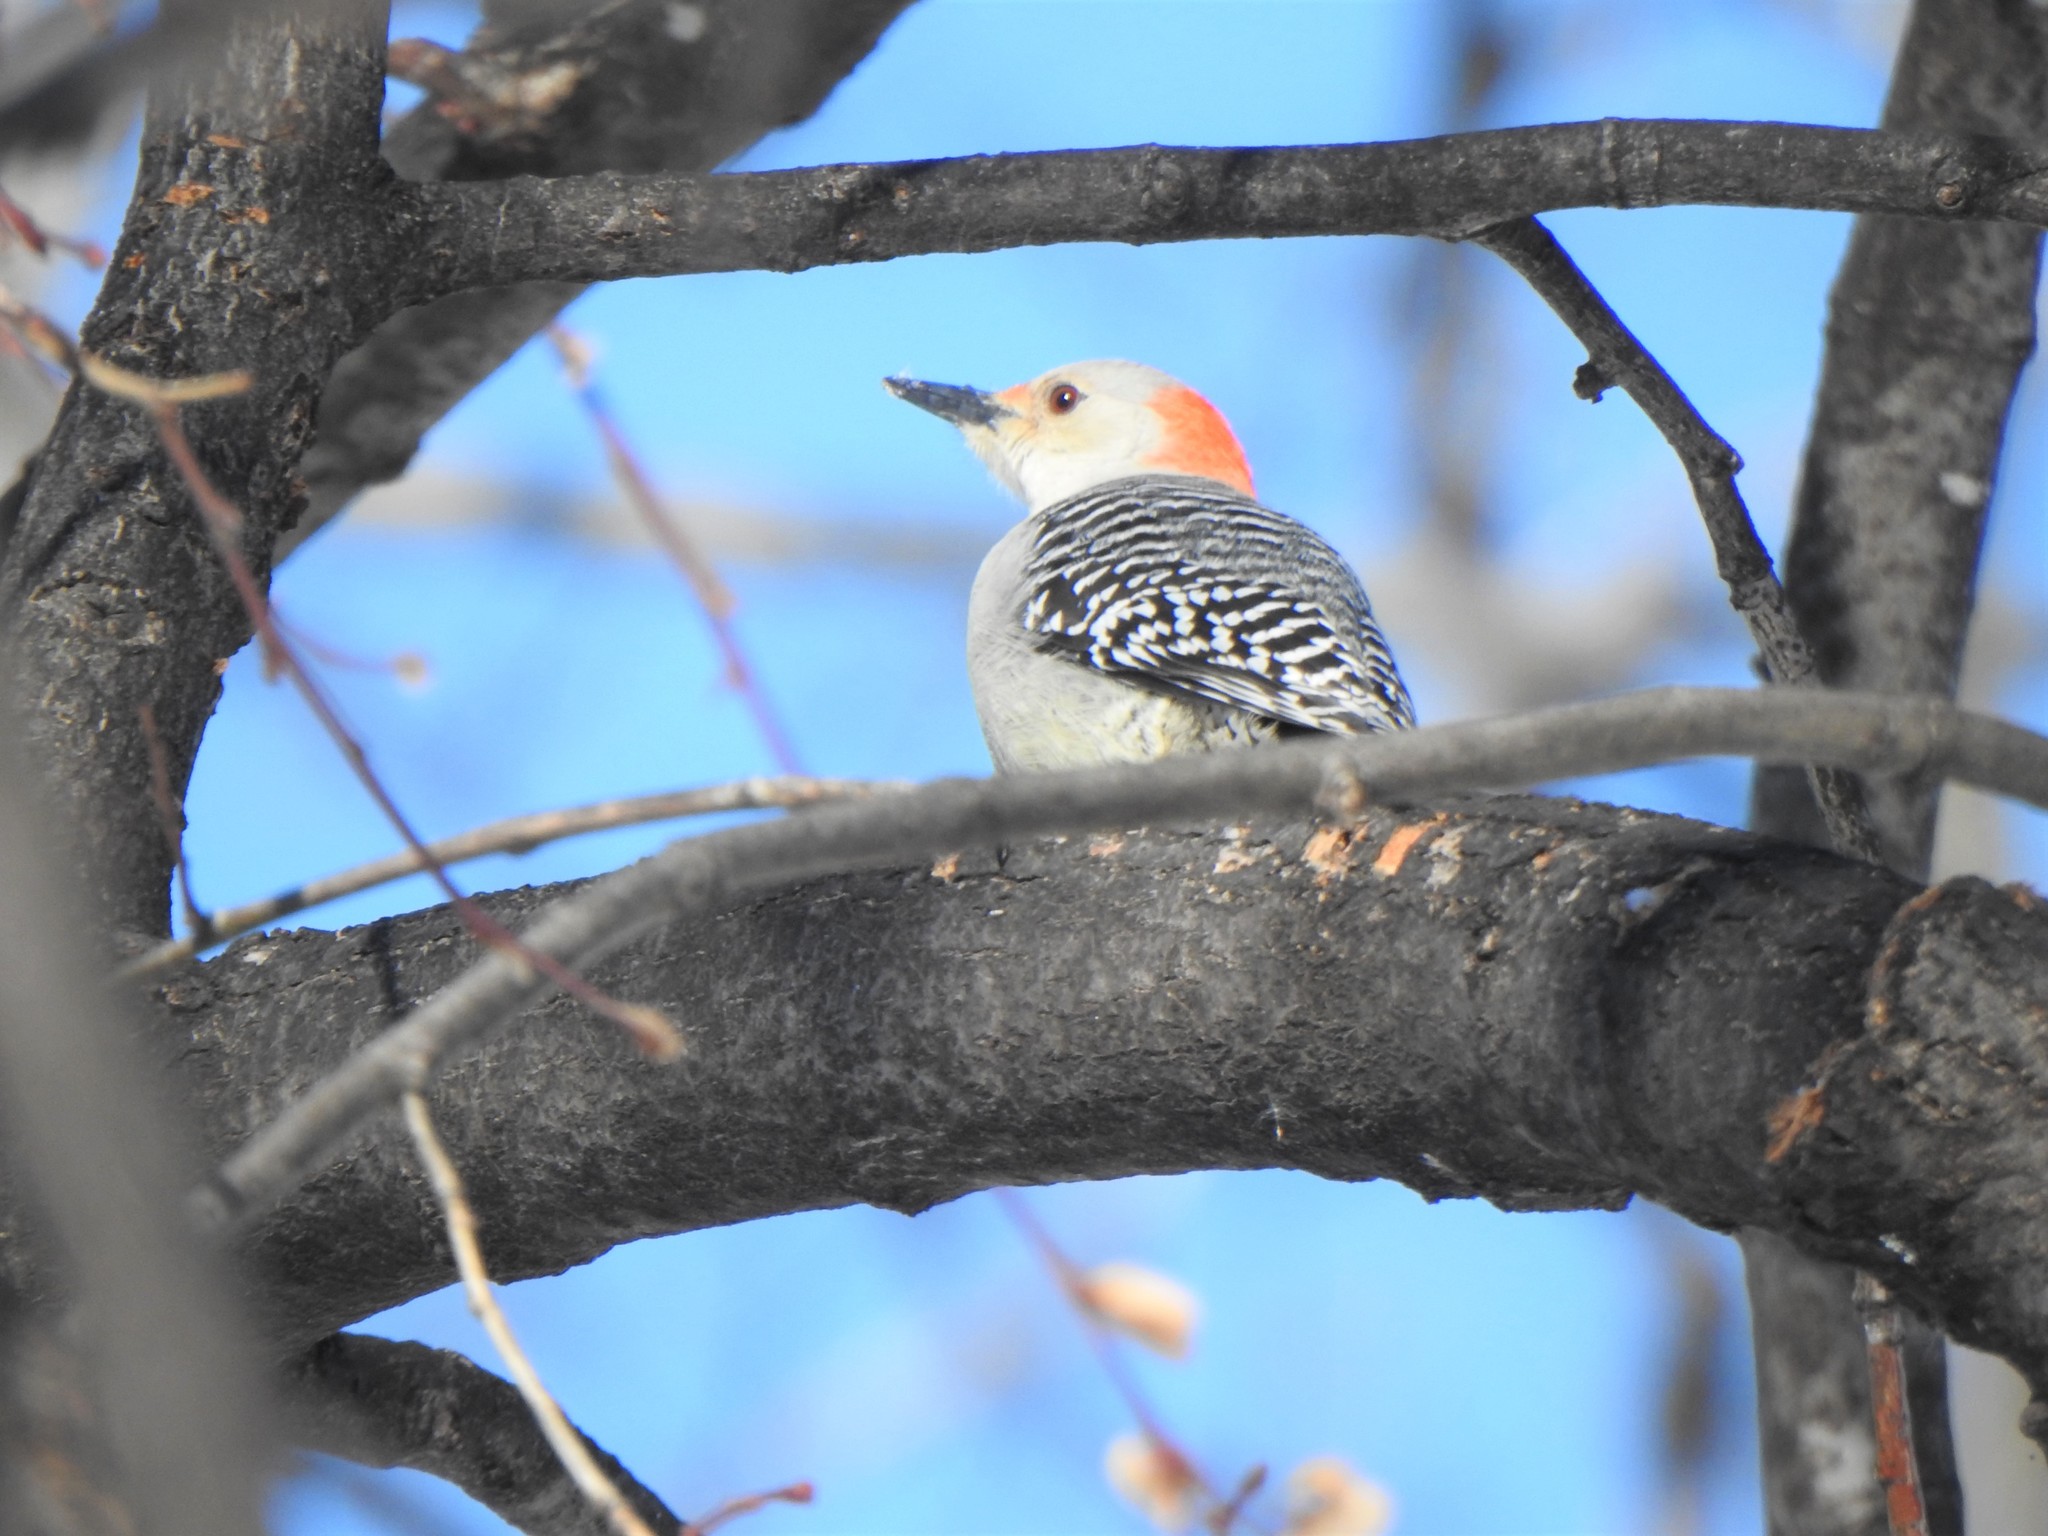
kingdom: Animalia
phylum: Chordata
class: Aves
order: Piciformes
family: Picidae
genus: Melanerpes
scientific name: Melanerpes carolinus
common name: Red-bellied woodpecker
